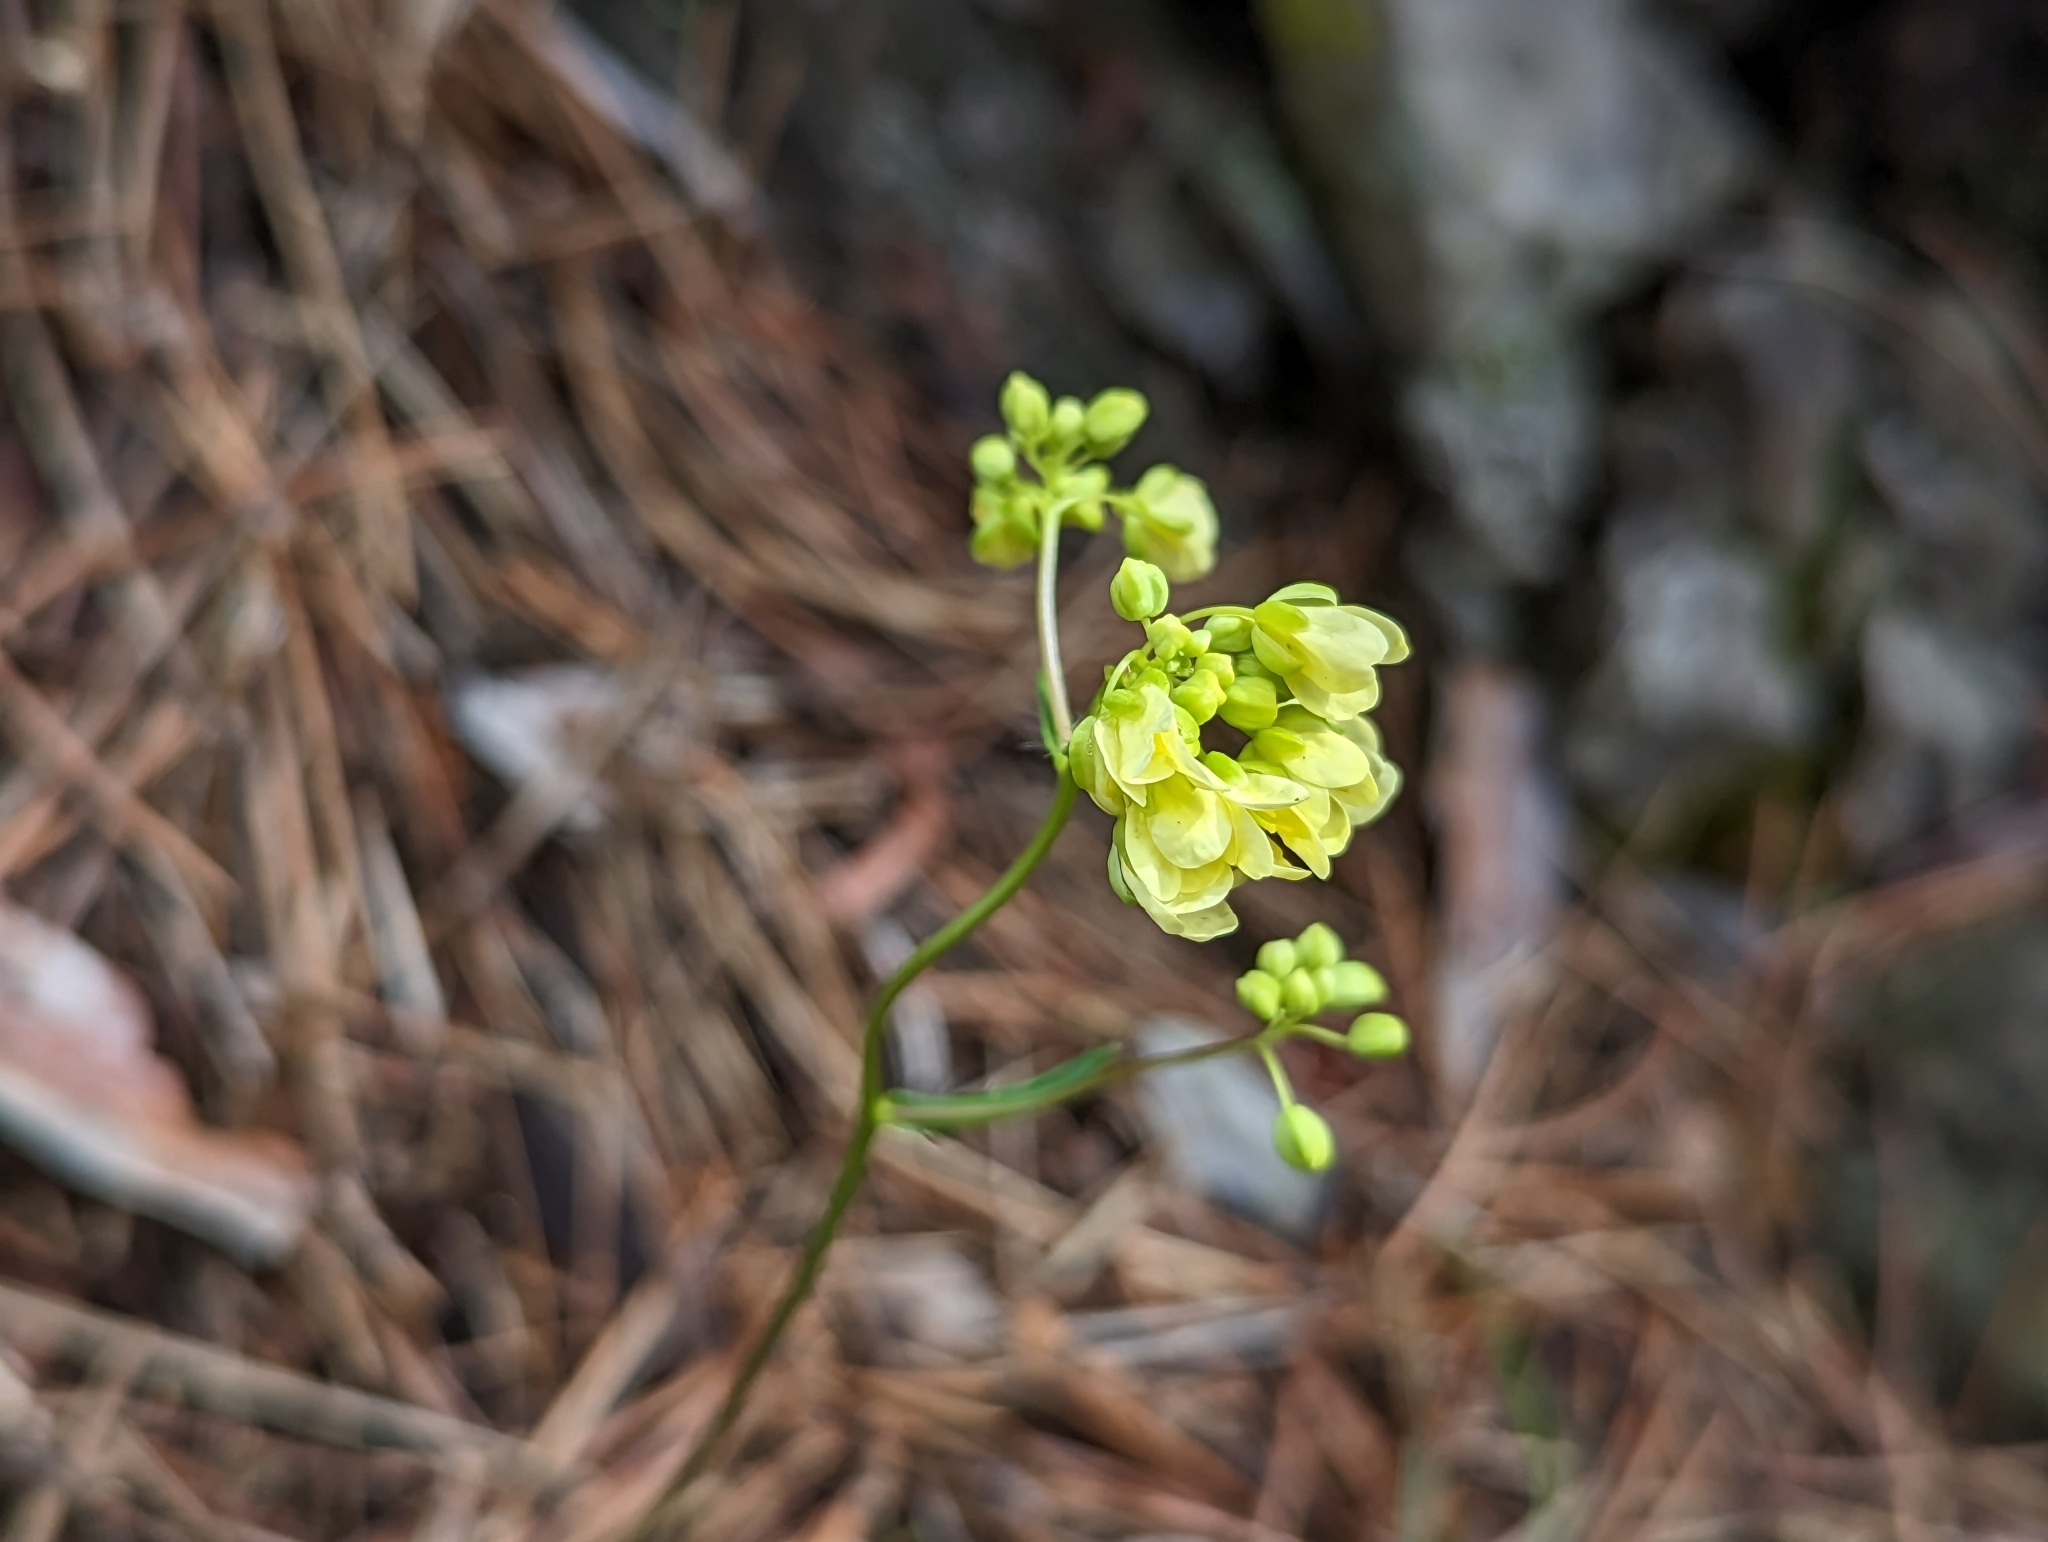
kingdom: Plantae
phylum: Tracheophyta
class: Magnoliopsida
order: Brassicales
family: Brassicaceae
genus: Biscutella
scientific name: Biscutella laevigata
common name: Buckler mustard
